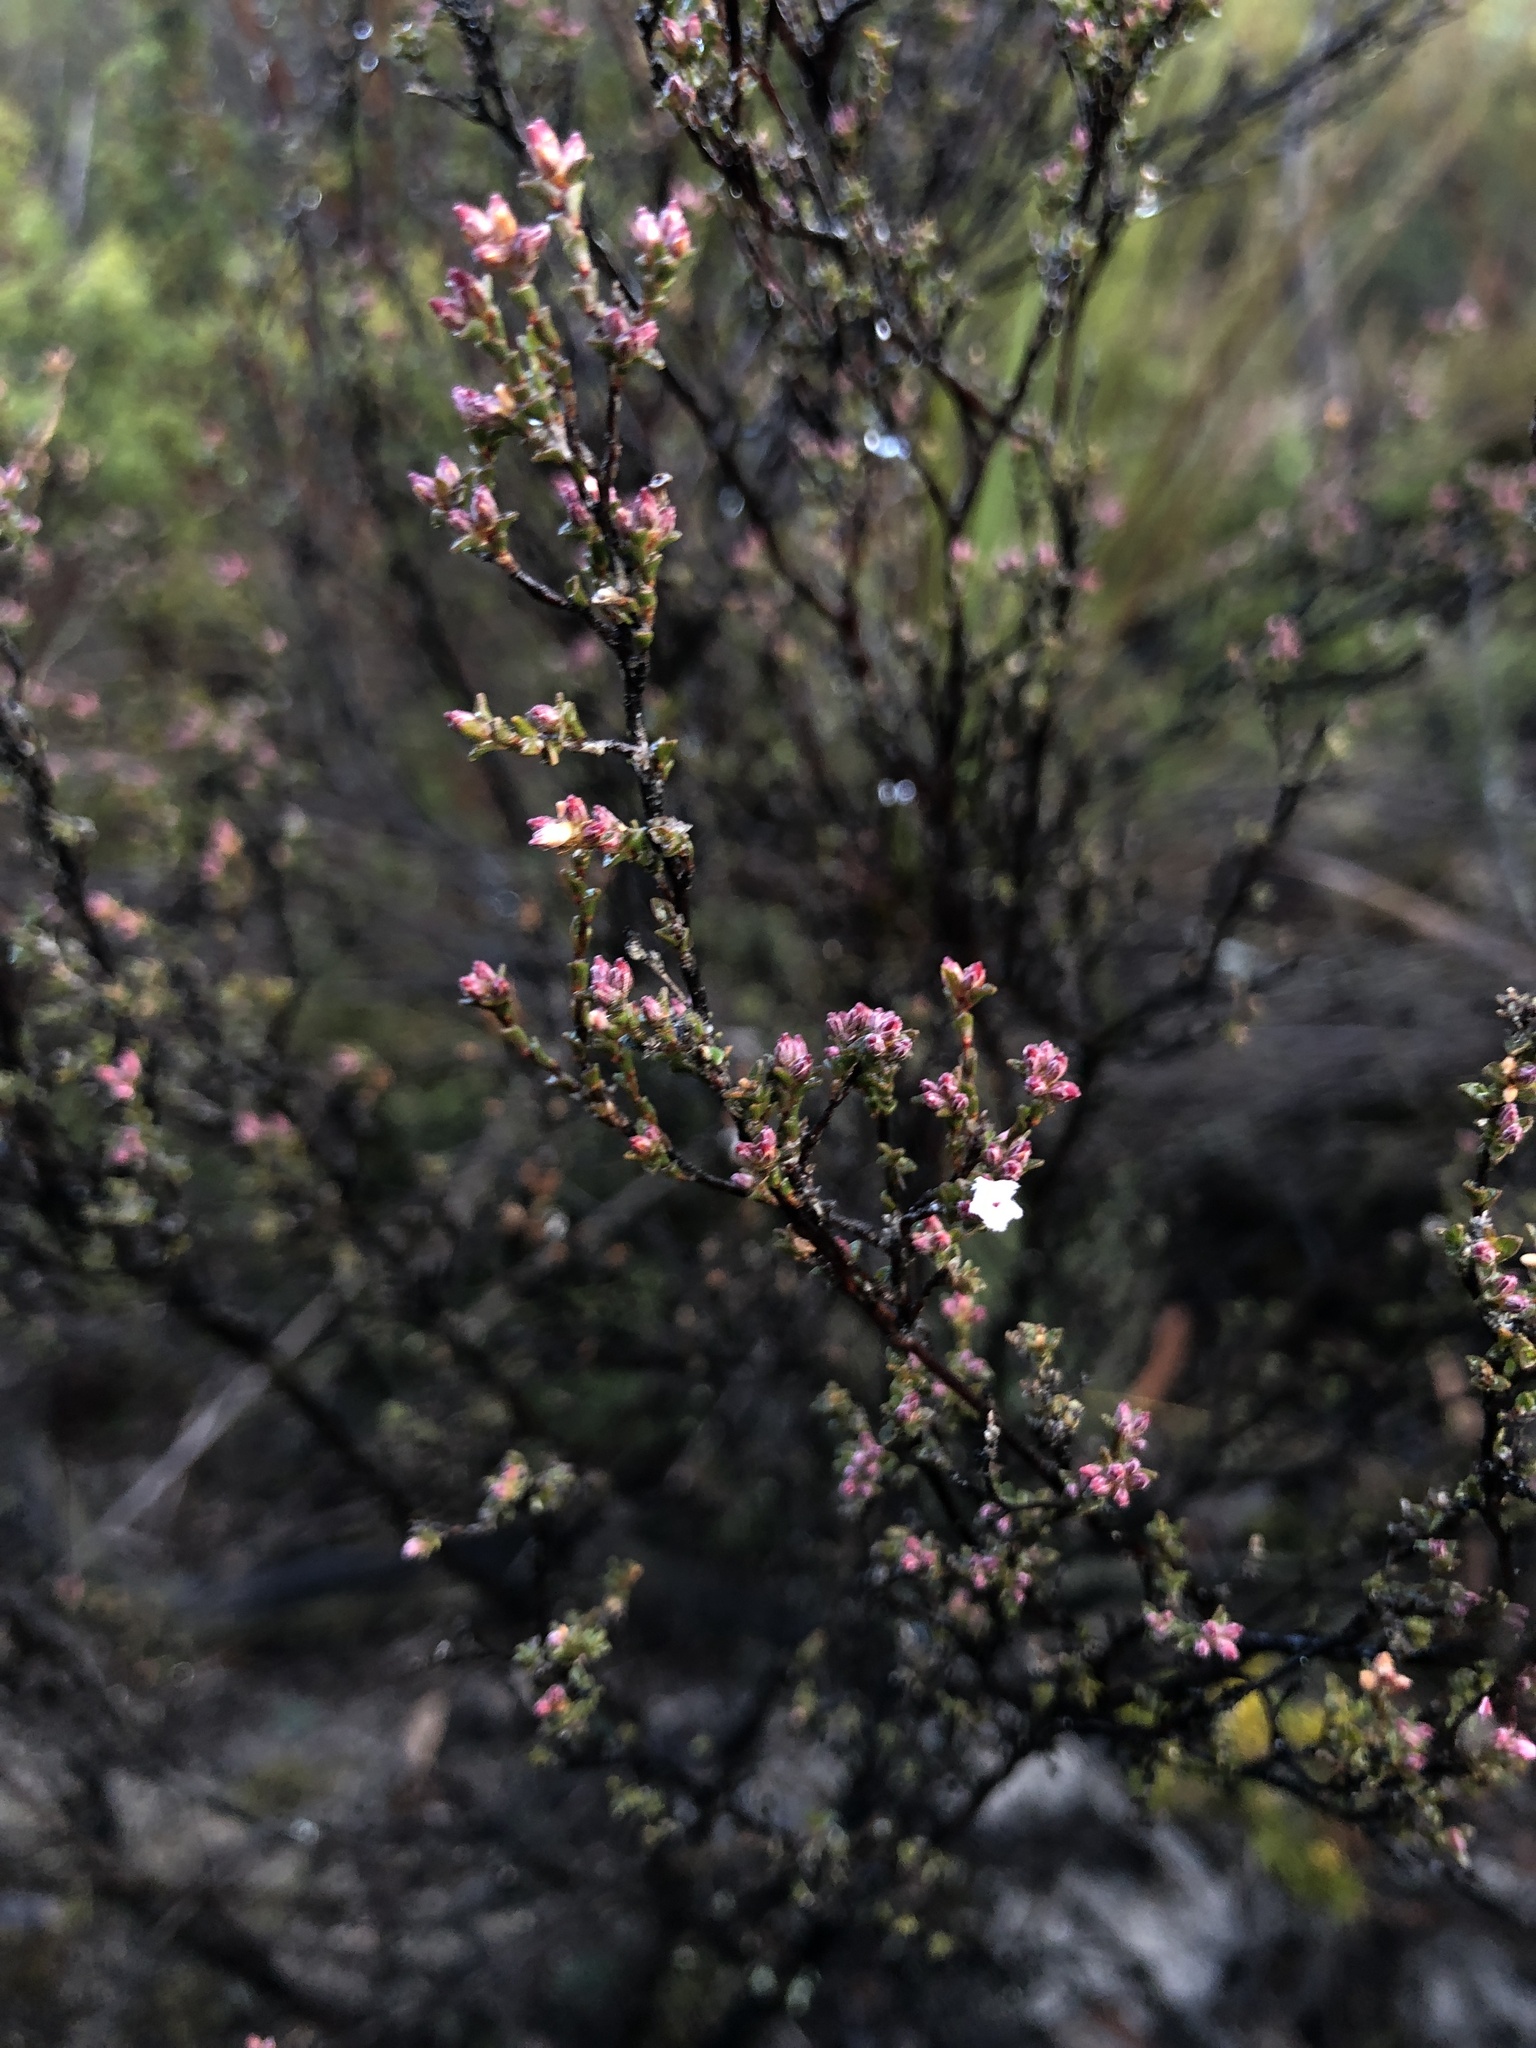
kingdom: Plantae
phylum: Tracheophyta
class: Magnoliopsida
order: Ericales
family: Ericaceae
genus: Leucopogon
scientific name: Leucopogon costatus
